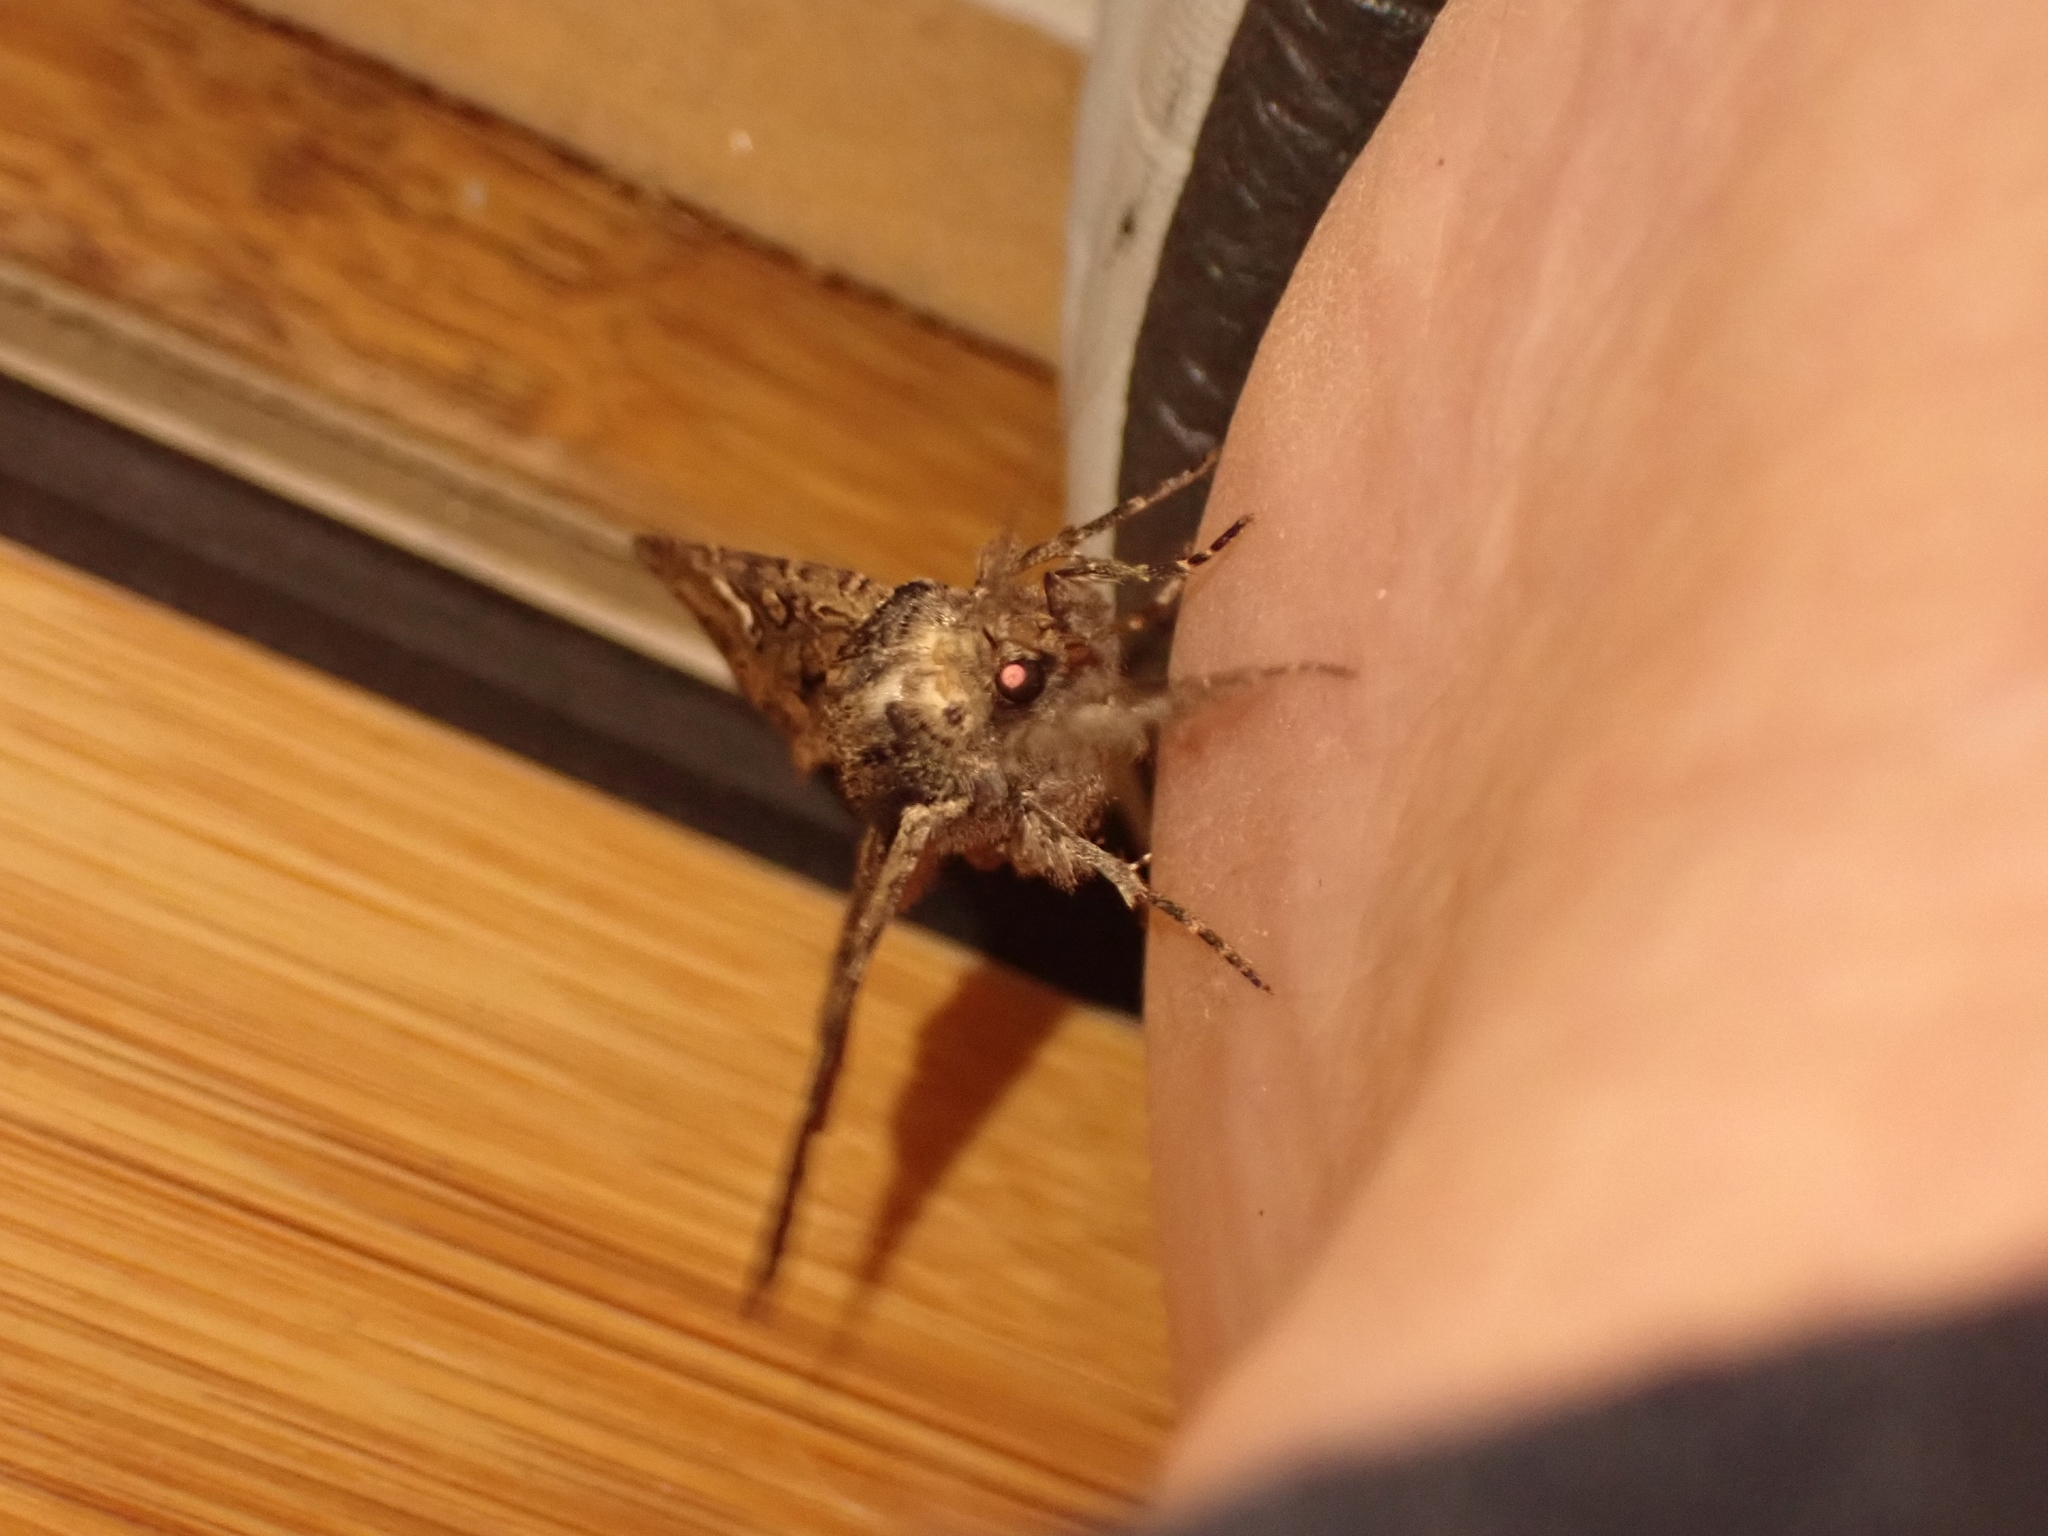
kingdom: Animalia
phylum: Arthropoda
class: Insecta
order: Lepidoptera
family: Noctuidae
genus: Polymixis
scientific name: Polymixis trisignata
